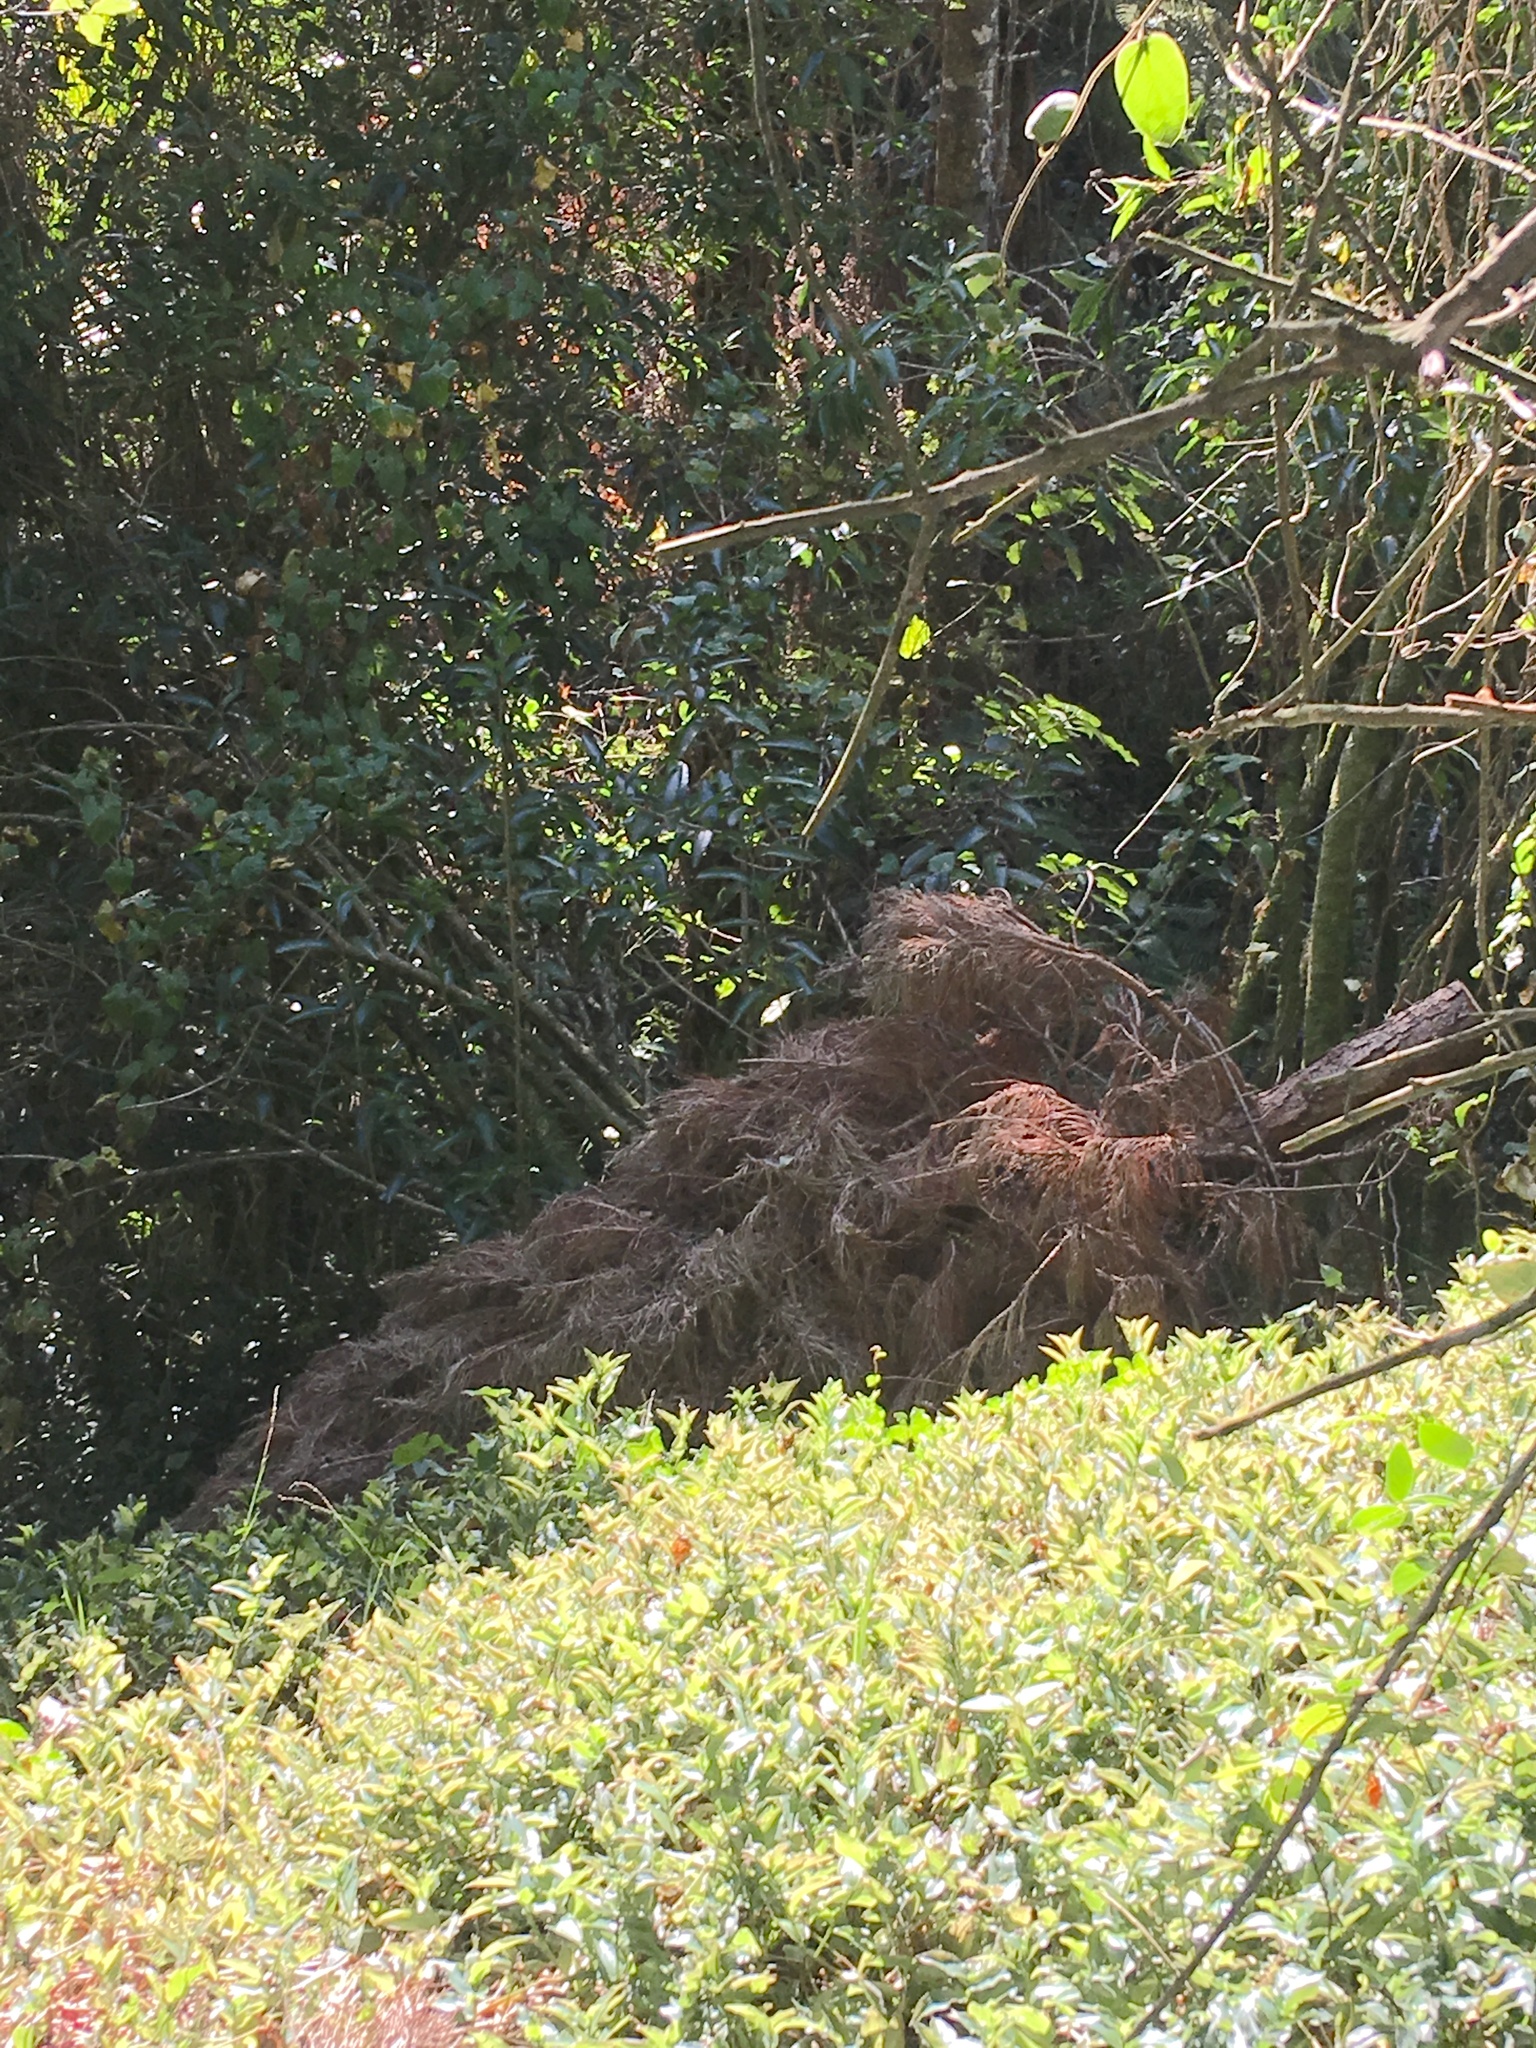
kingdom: Plantae
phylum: Tracheophyta
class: Pinopsida
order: Pinales
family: Pinaceae
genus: Pinus
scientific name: Pinus radiata
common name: Monterey pine
